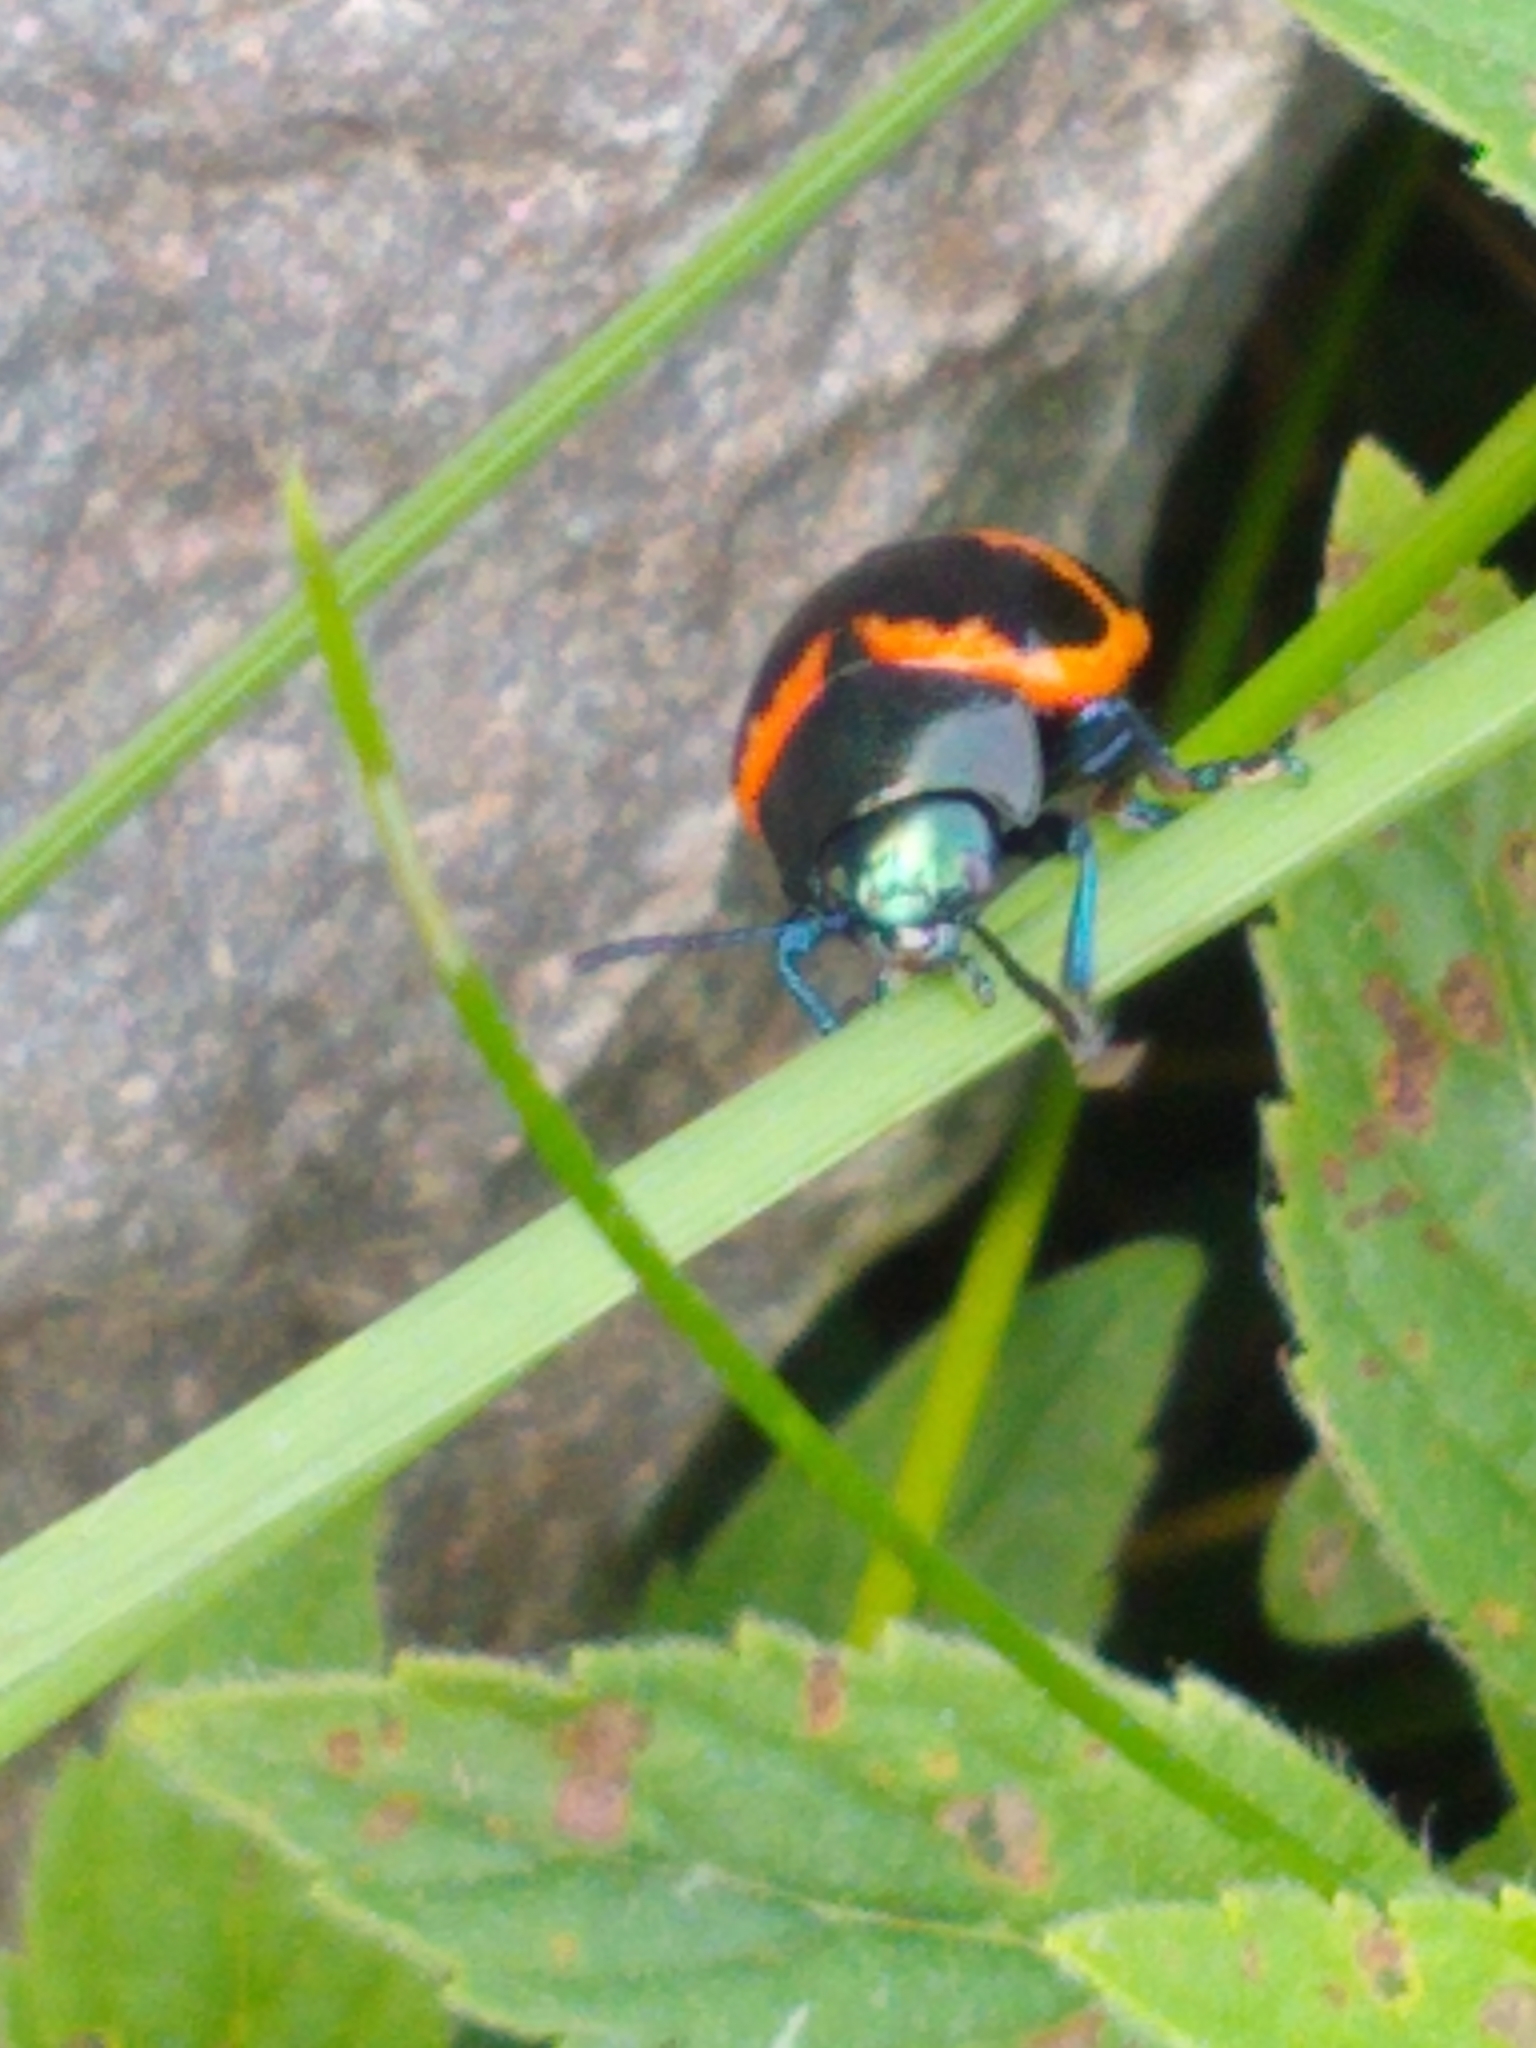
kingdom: Animalia
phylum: Arthropoda
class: Insecta
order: Coleoptera
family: Chrysomelidae
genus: Labidomera
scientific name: Labidomera clivicollis
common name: Swamp milkweed leaf beetle
